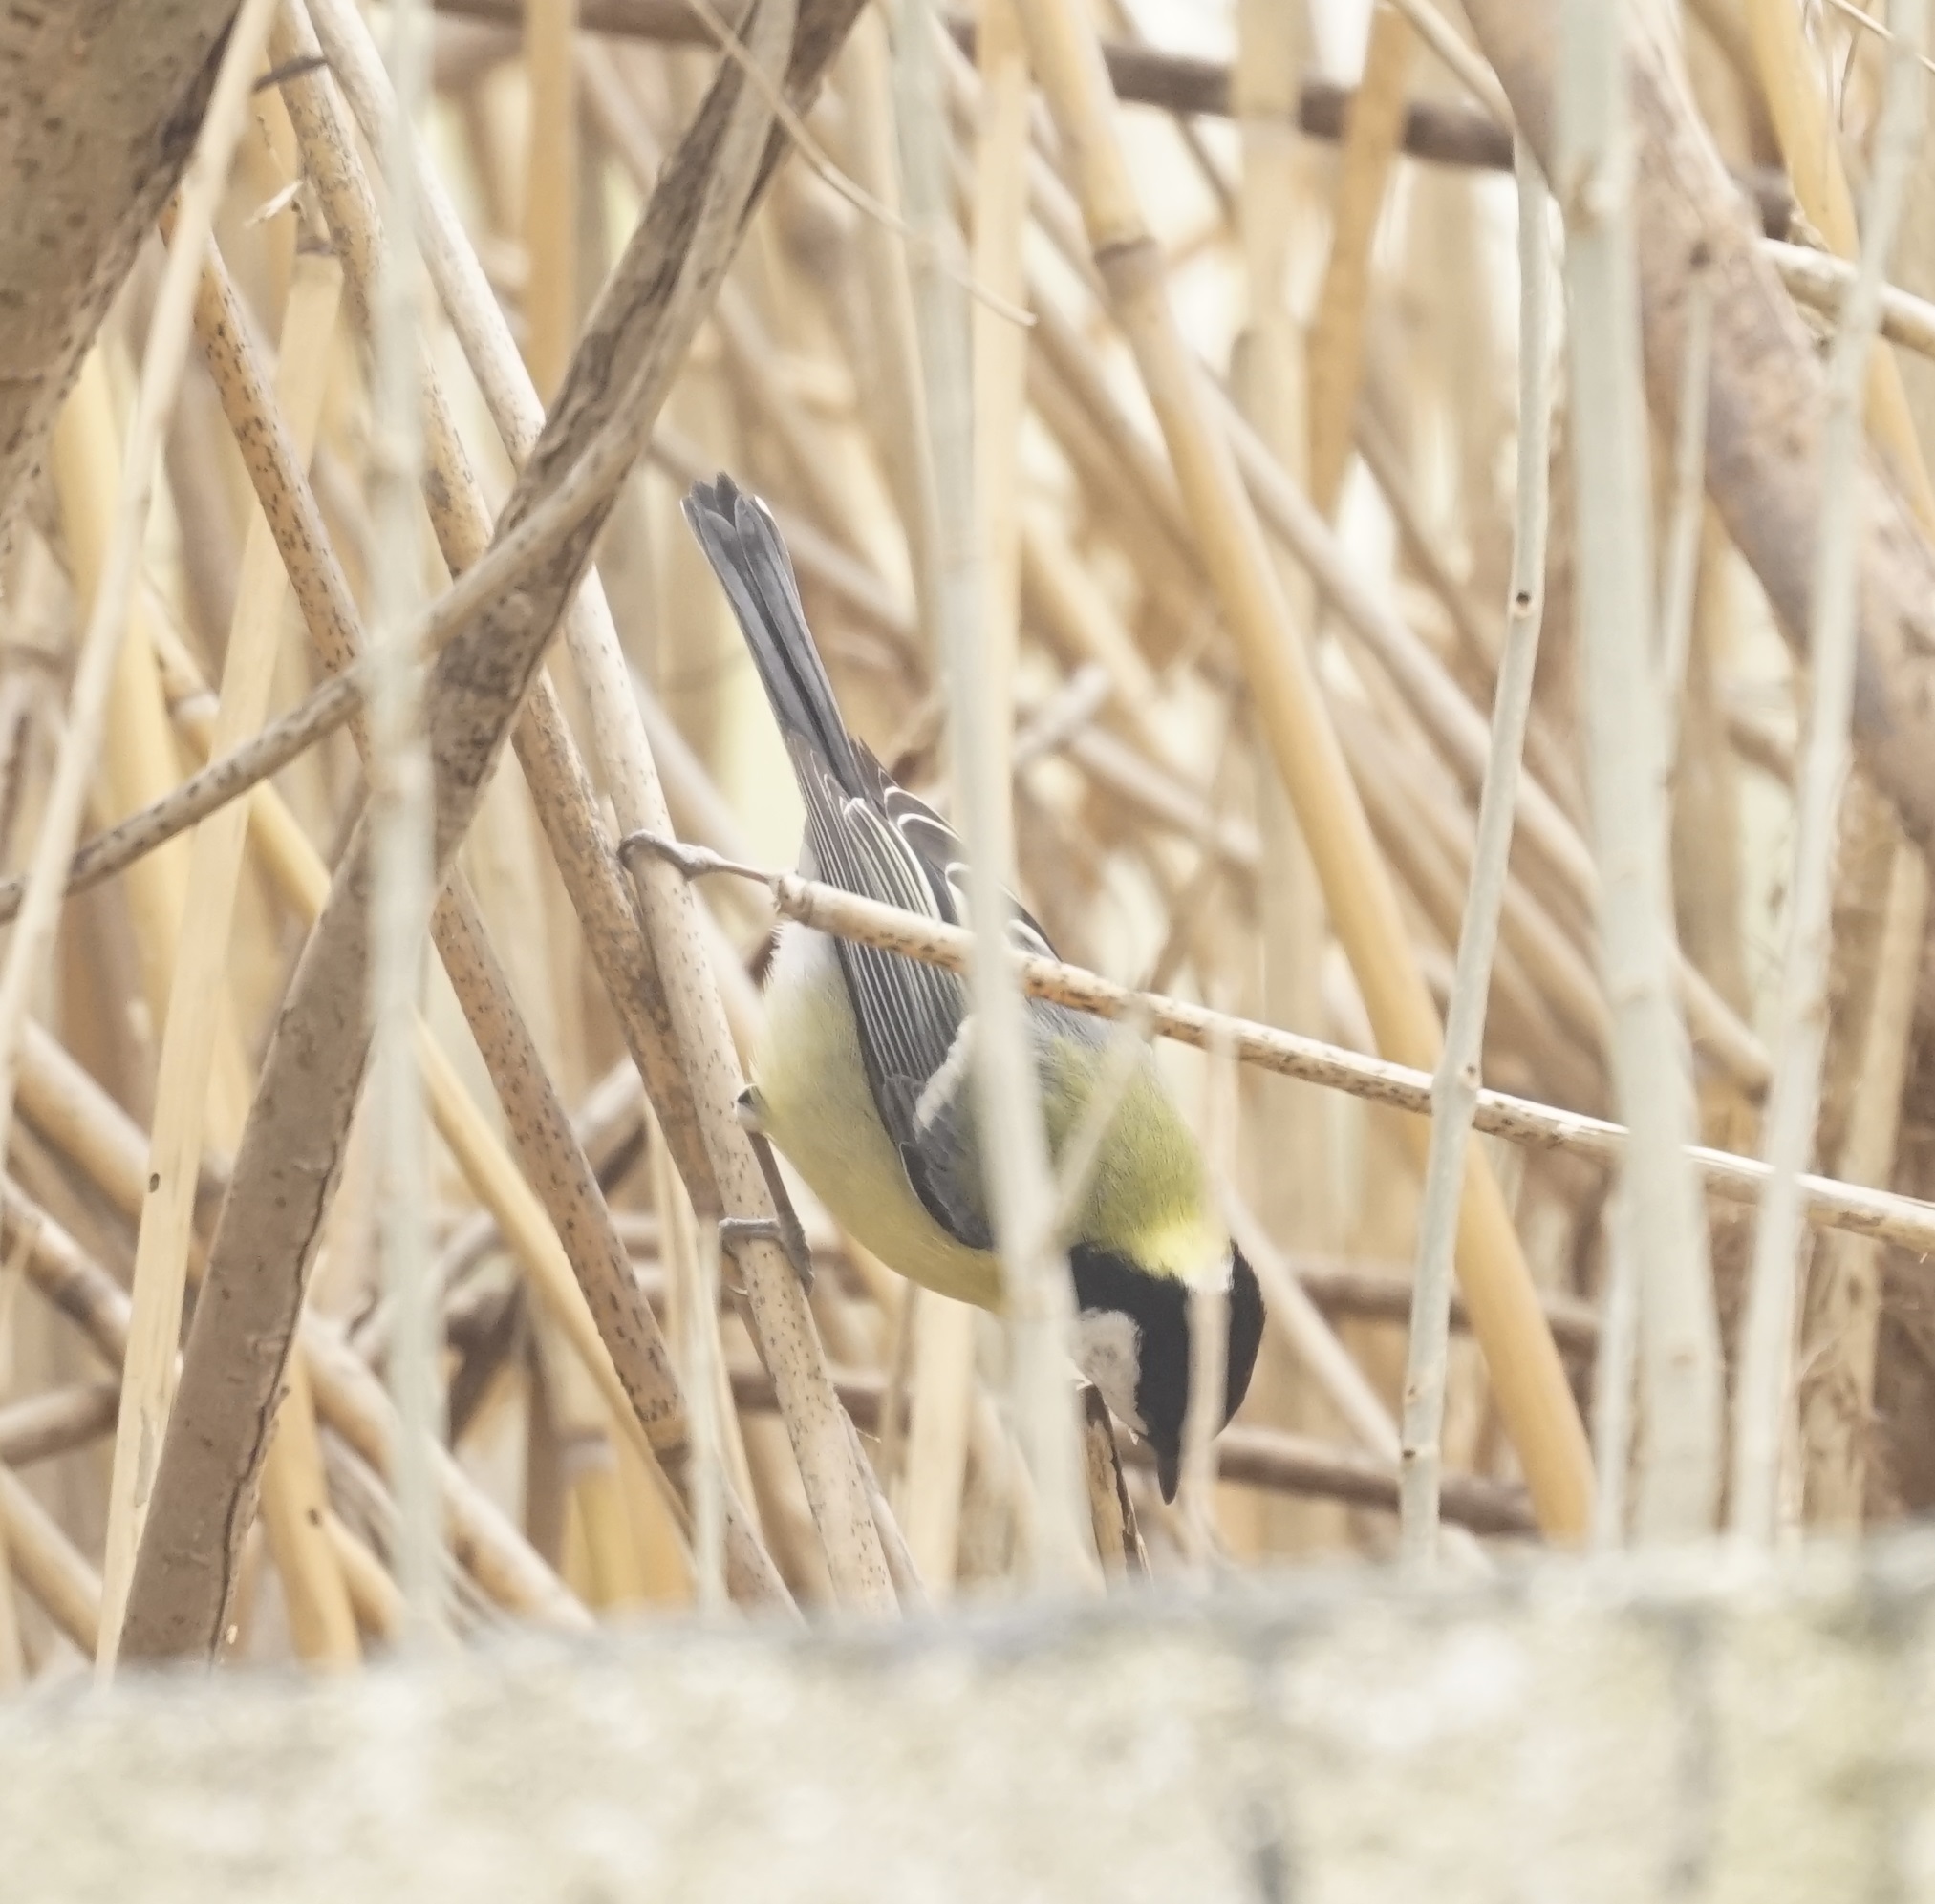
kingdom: Animalia
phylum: Chordata
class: Aves
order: Passeriformes
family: Paridae
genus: Parus
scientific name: Parus major
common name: Great tit
